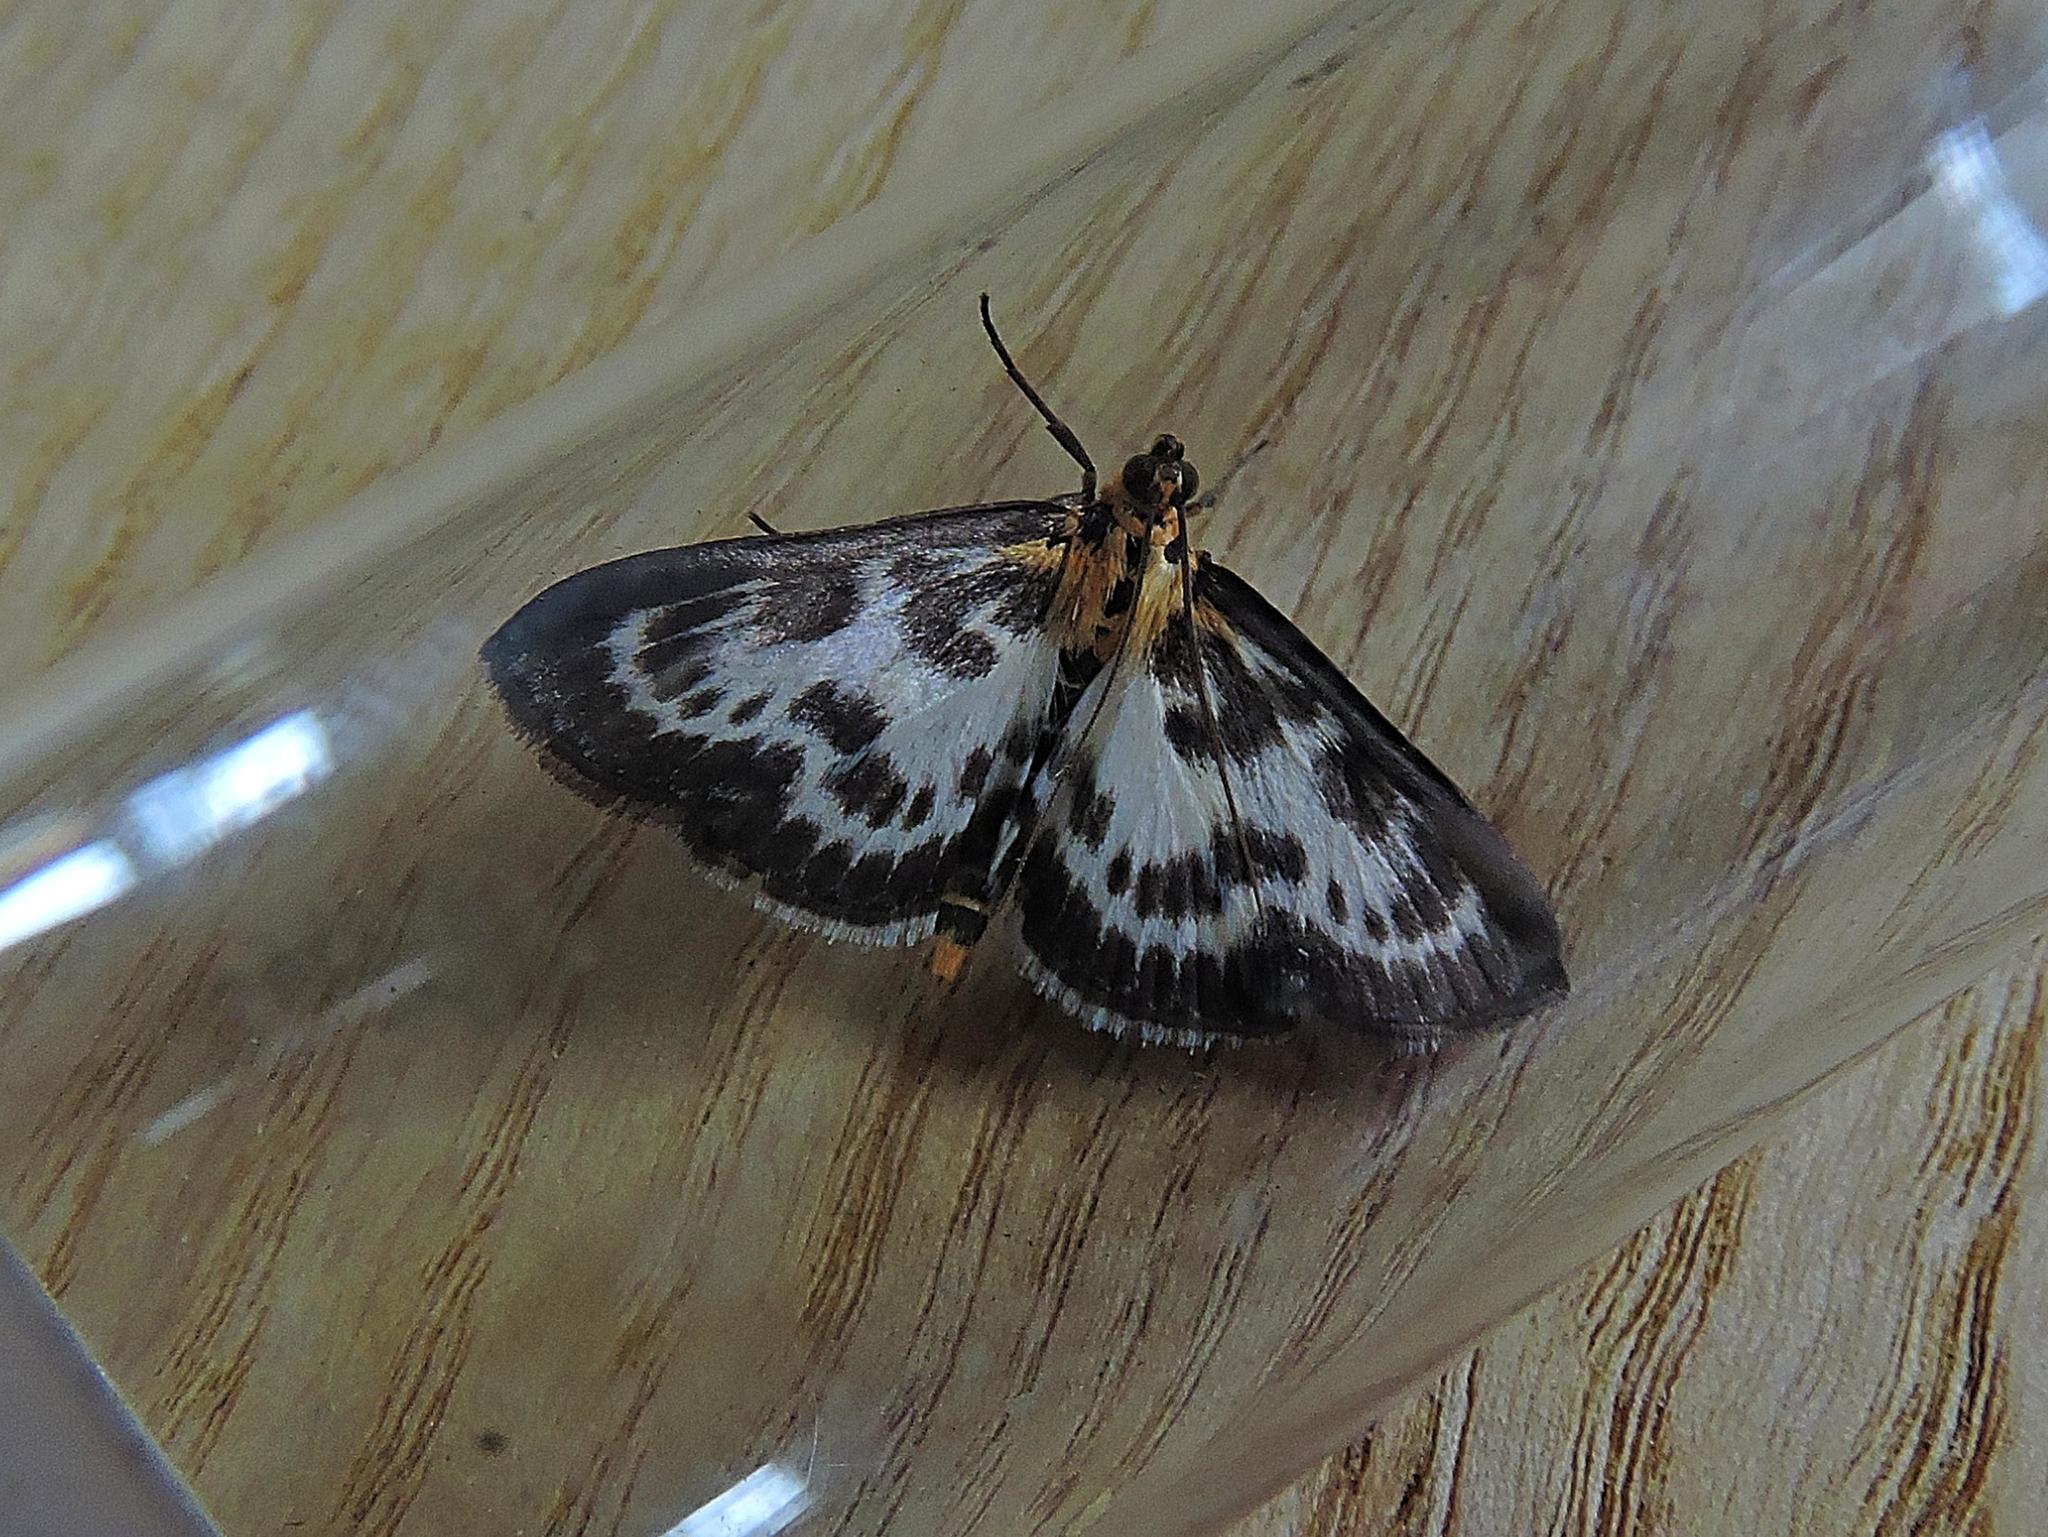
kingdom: Animalia
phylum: Arthropoda
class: Insecta
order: Lepidoptera
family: Crambidae
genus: Anania
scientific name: Anania hortulata
